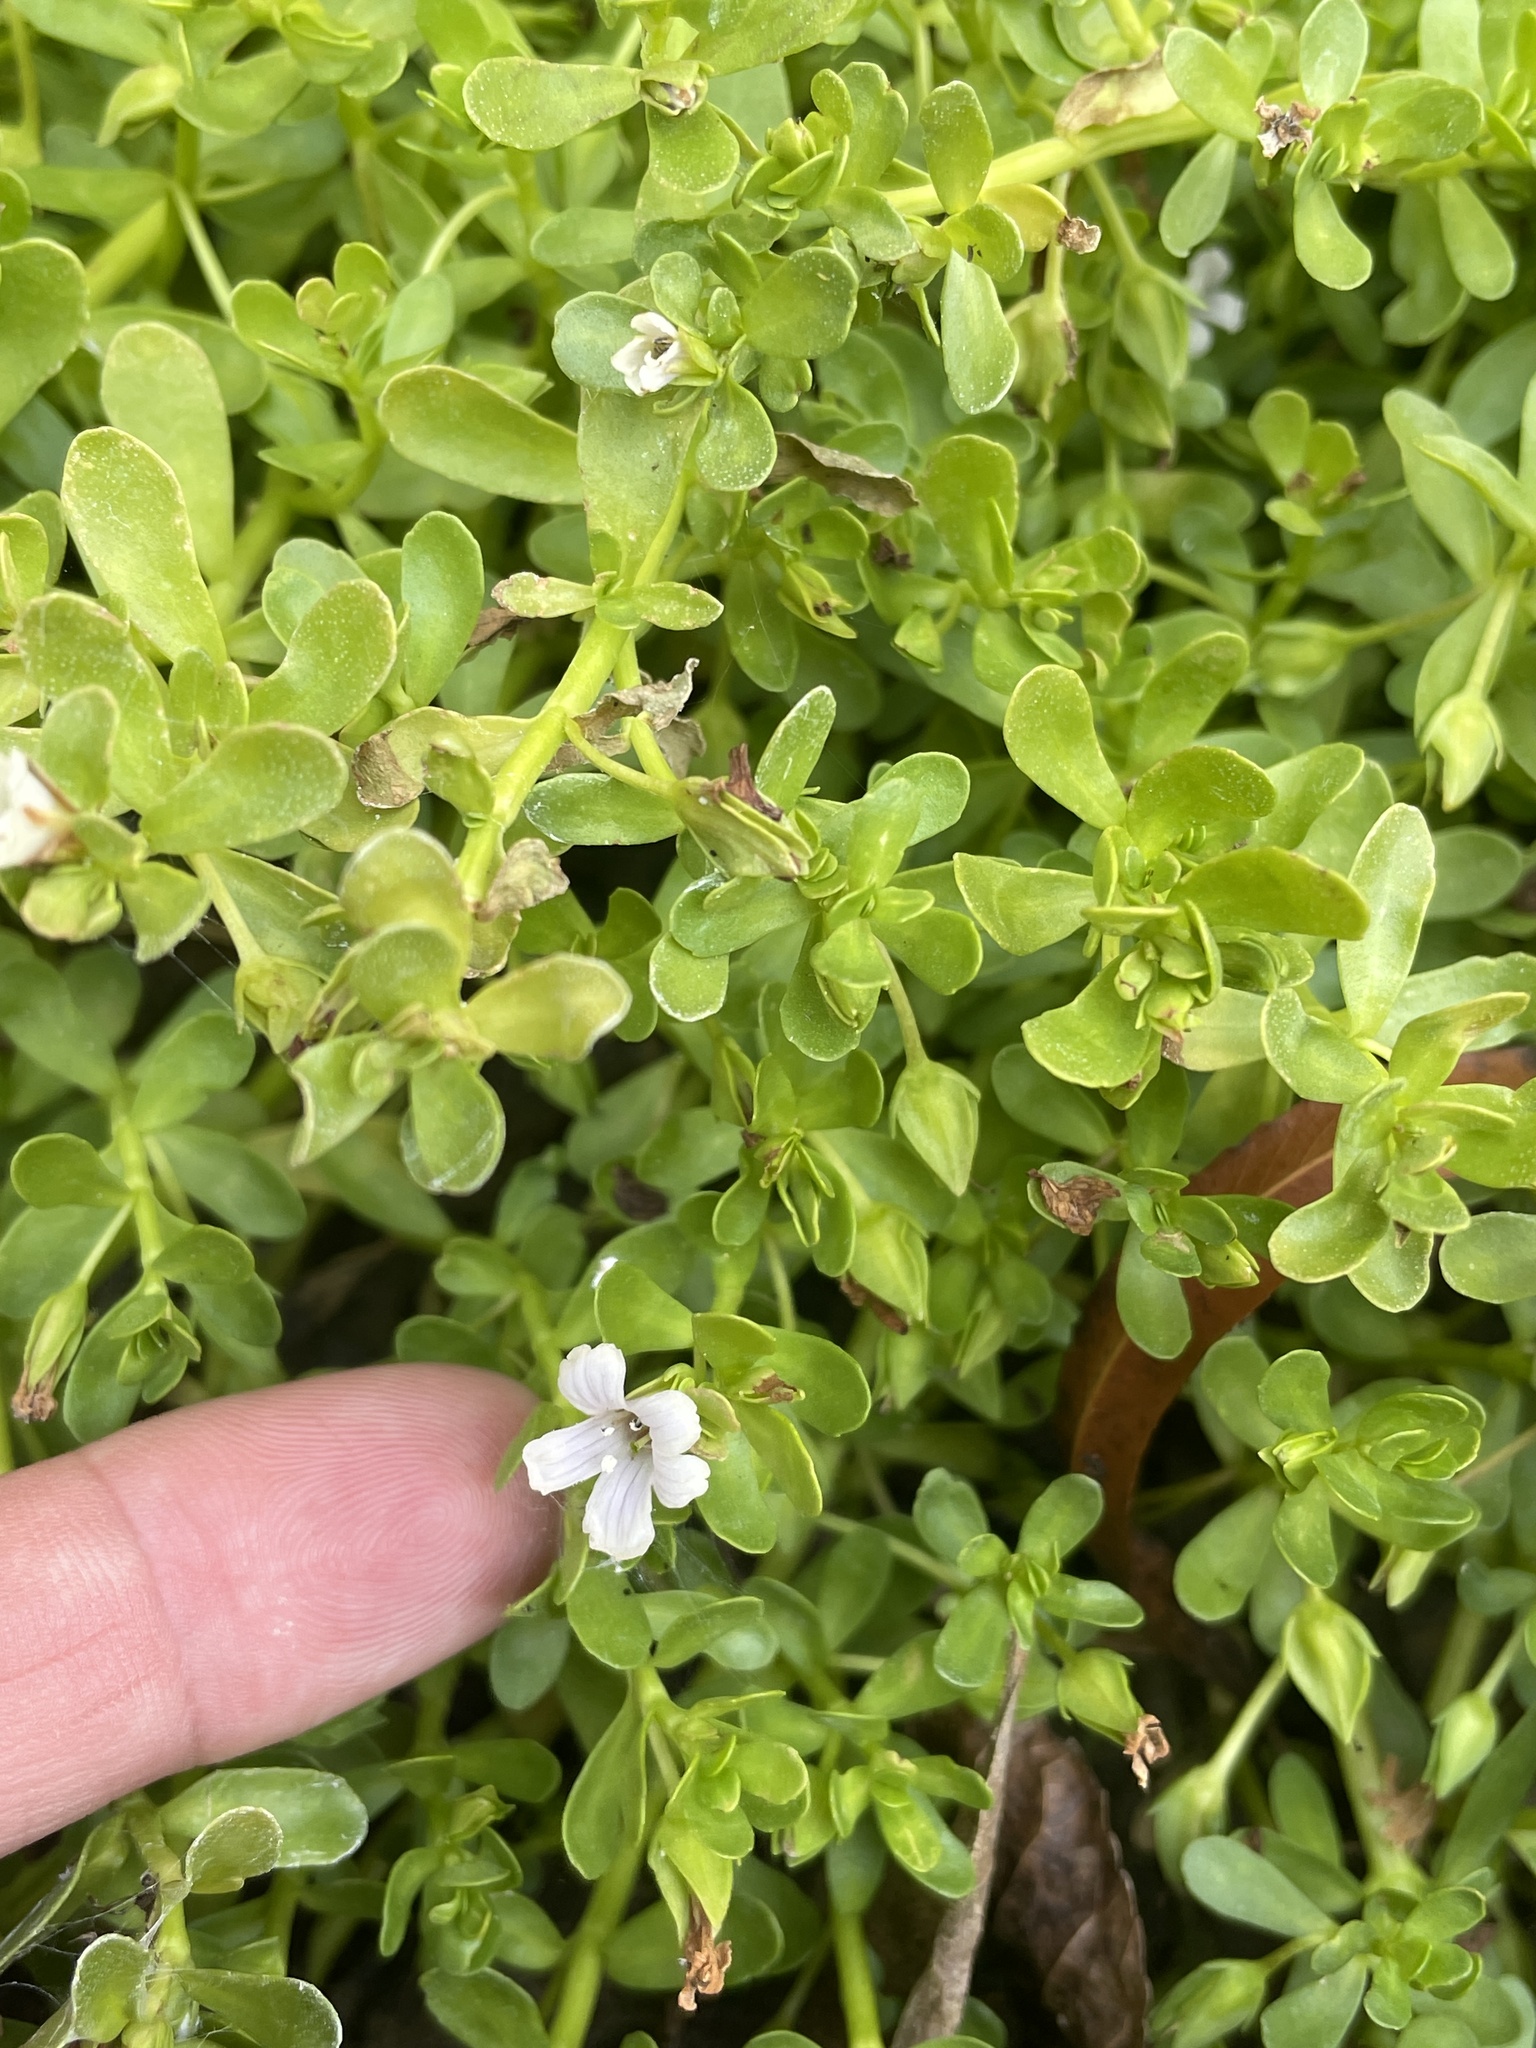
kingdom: Plantae
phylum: Tracheophyta
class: Magnoliopsida
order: Lamiales
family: Plantaginaceae
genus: Bacopa
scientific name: Bacopa monnieri
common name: Indian-pennywort
